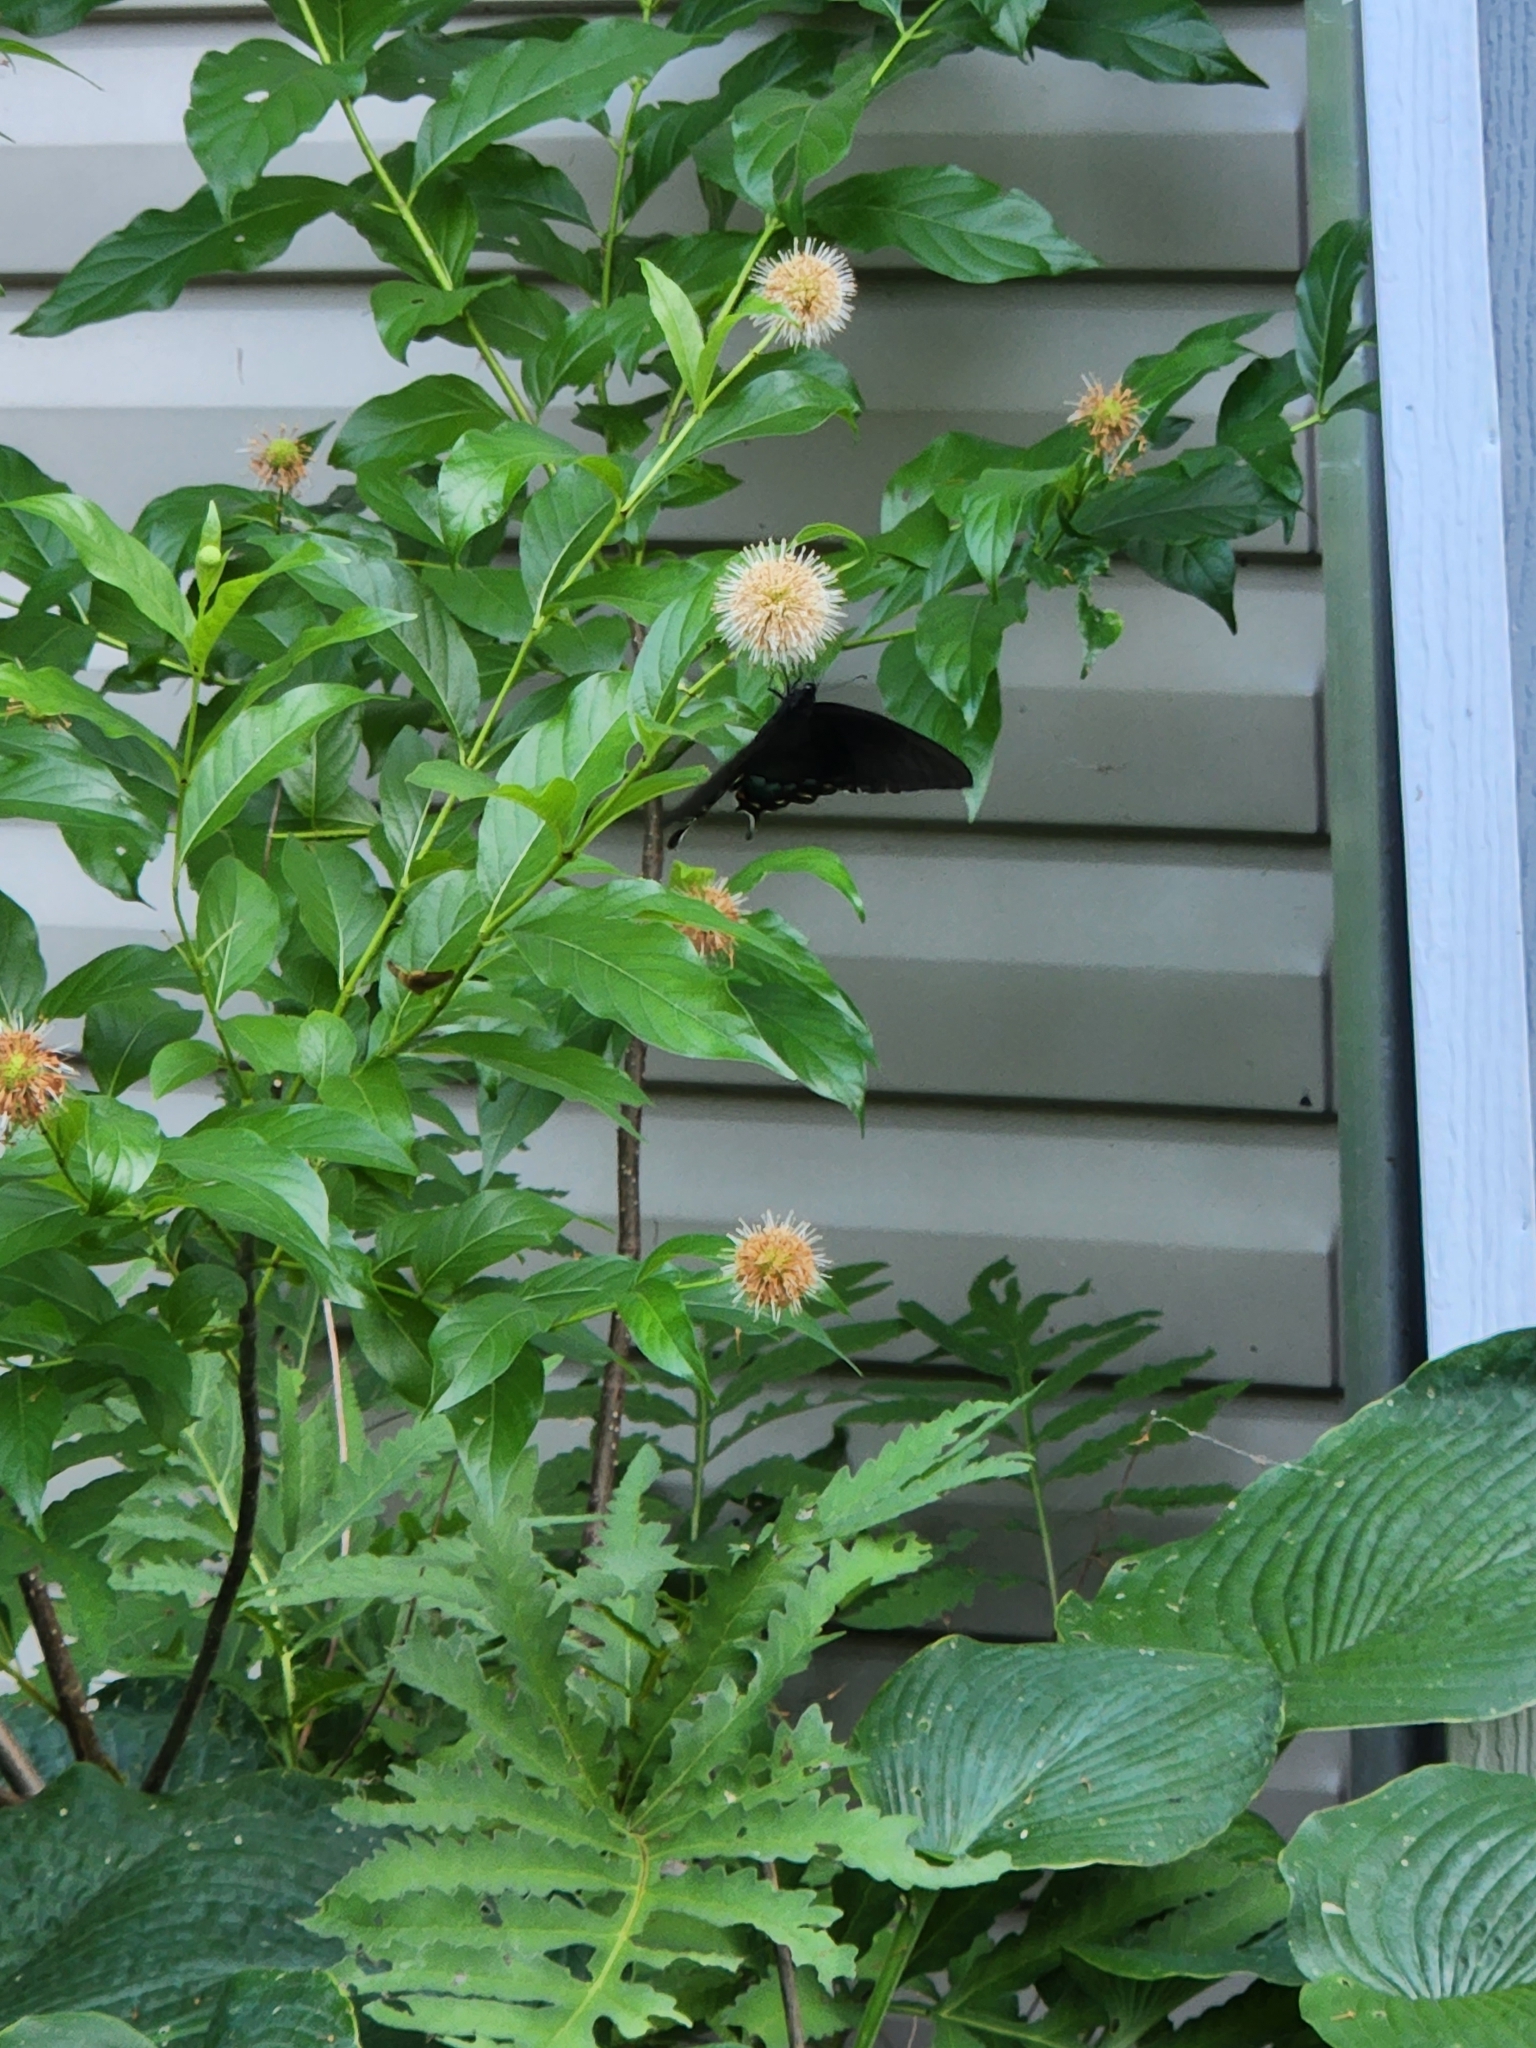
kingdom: Animalia
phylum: Arthropoda
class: Insecta
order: Lepidoptera
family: Papilionidae
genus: Papilio
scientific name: Papilio glaucus
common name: Tiger swallowtail
